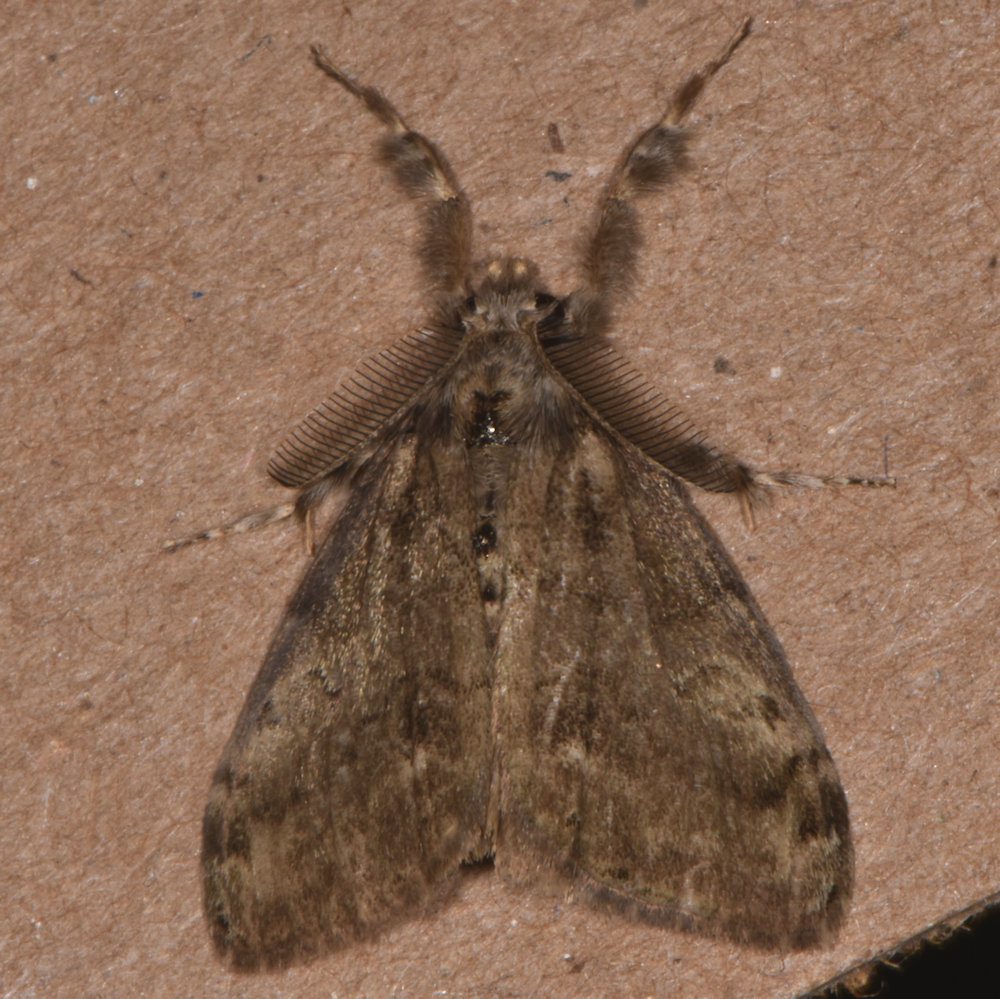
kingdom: Animalia
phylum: Arthropoda
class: Insecta
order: Lepidoptera
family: Erebidae
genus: Orgyia
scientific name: Orgyia leucostigma
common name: White-marked tussock moth
